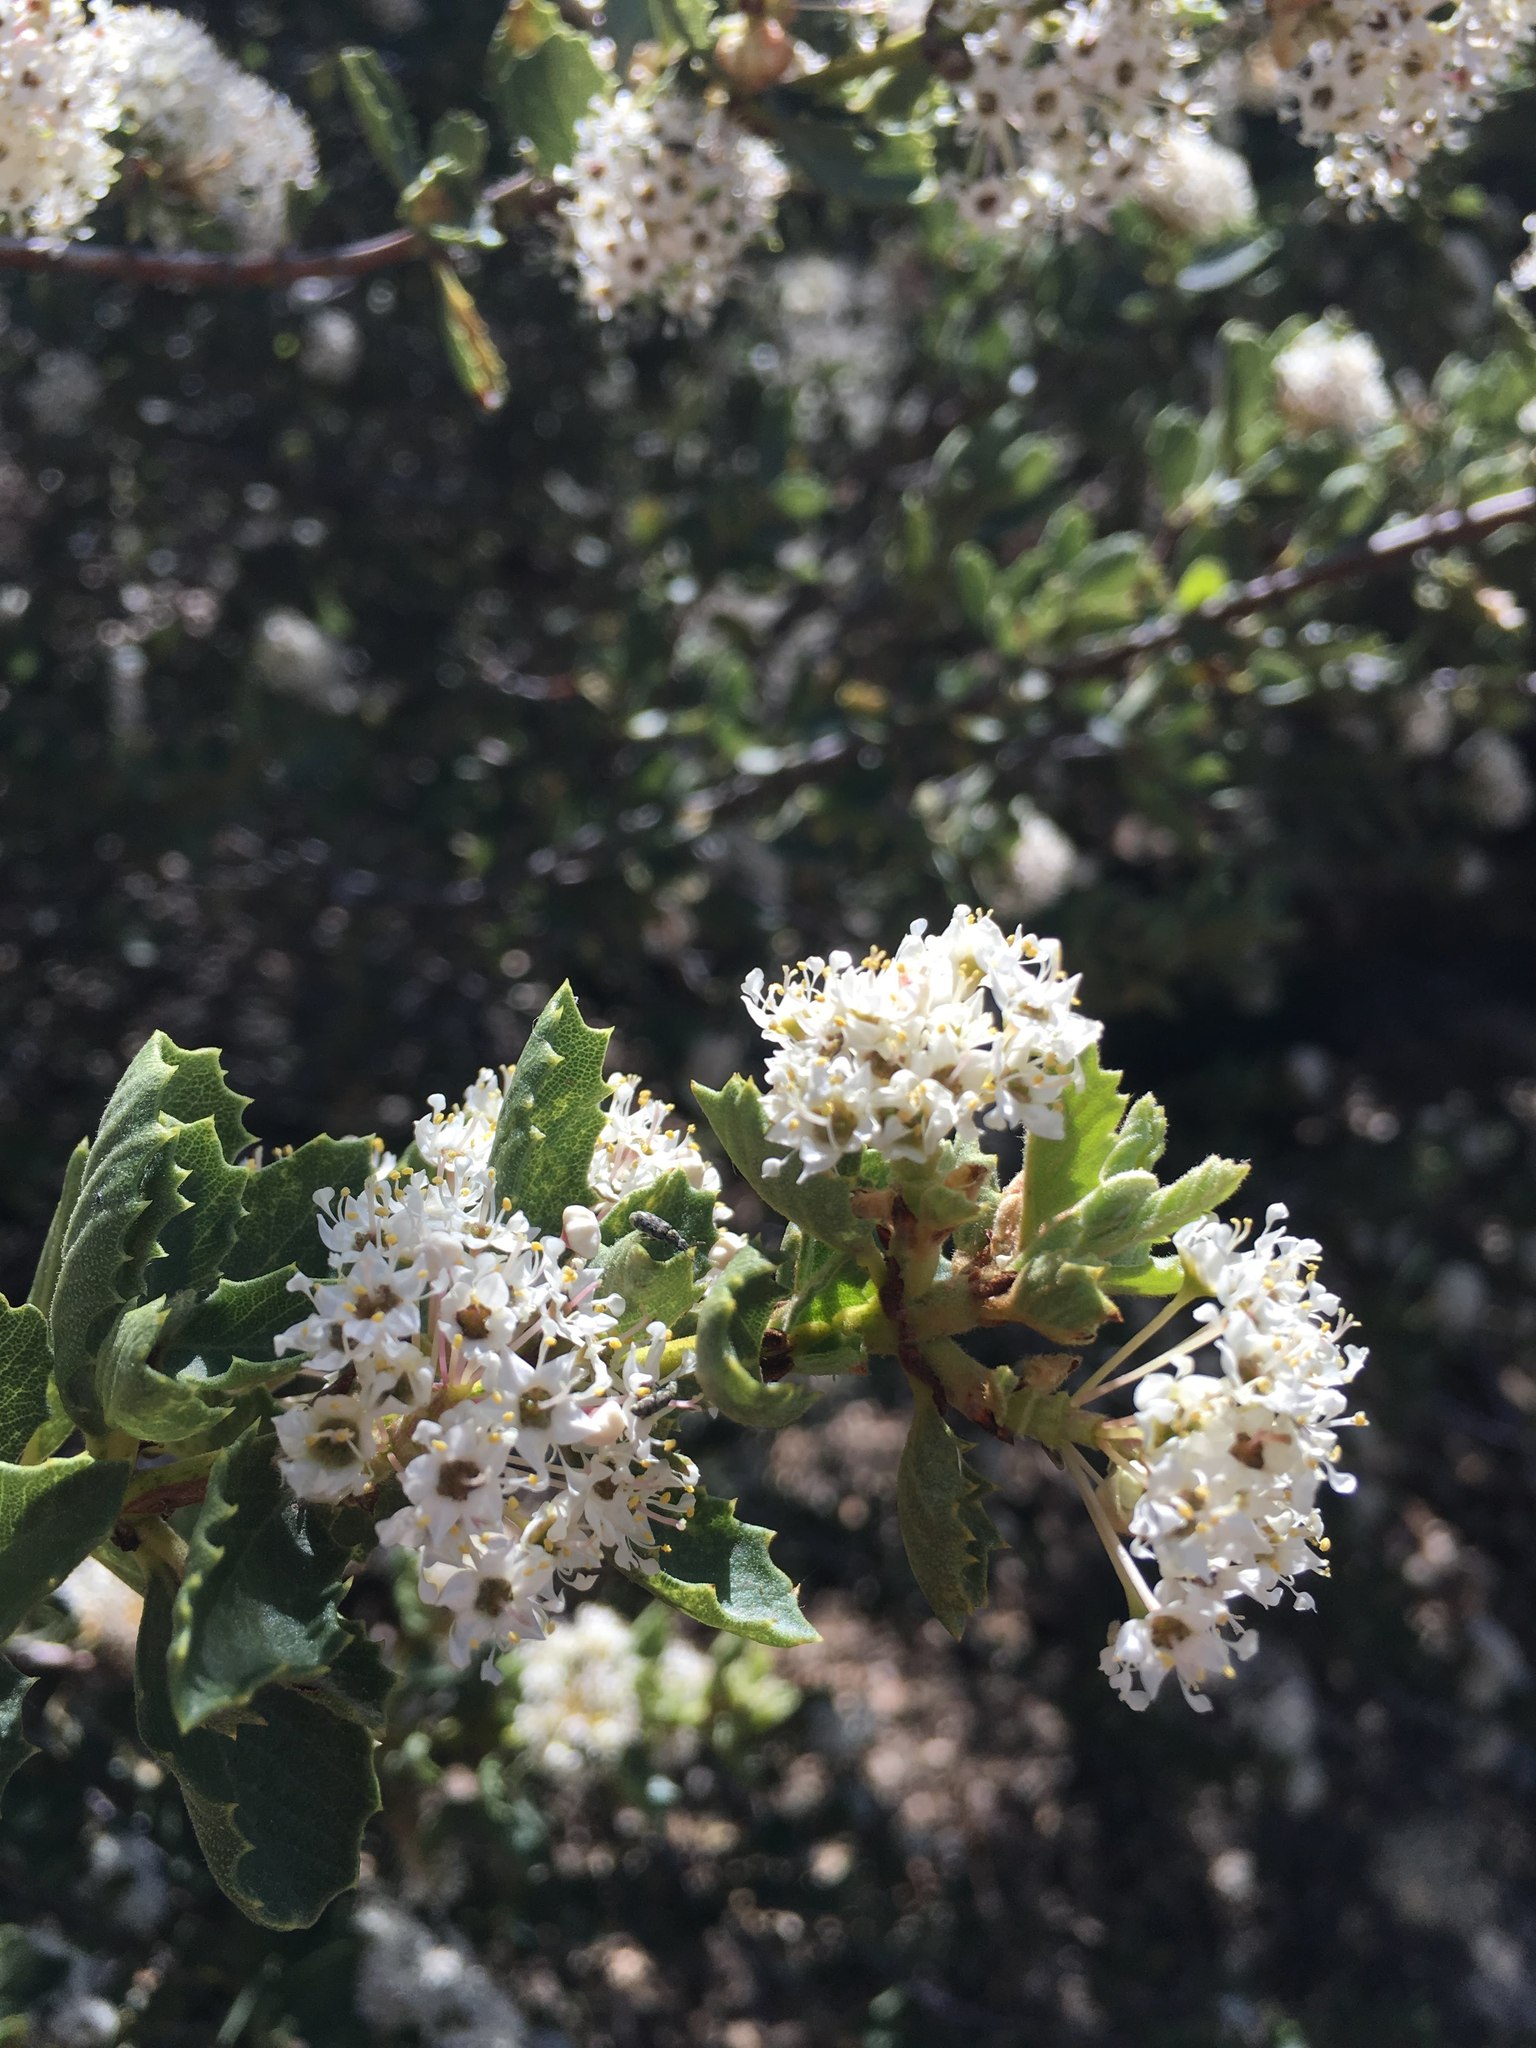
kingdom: Plantae
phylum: Tracheophyta
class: Magnoliopsida
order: Rosales
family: Rhamnaceae
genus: Ceanothus
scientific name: Ceanothus perplexans
